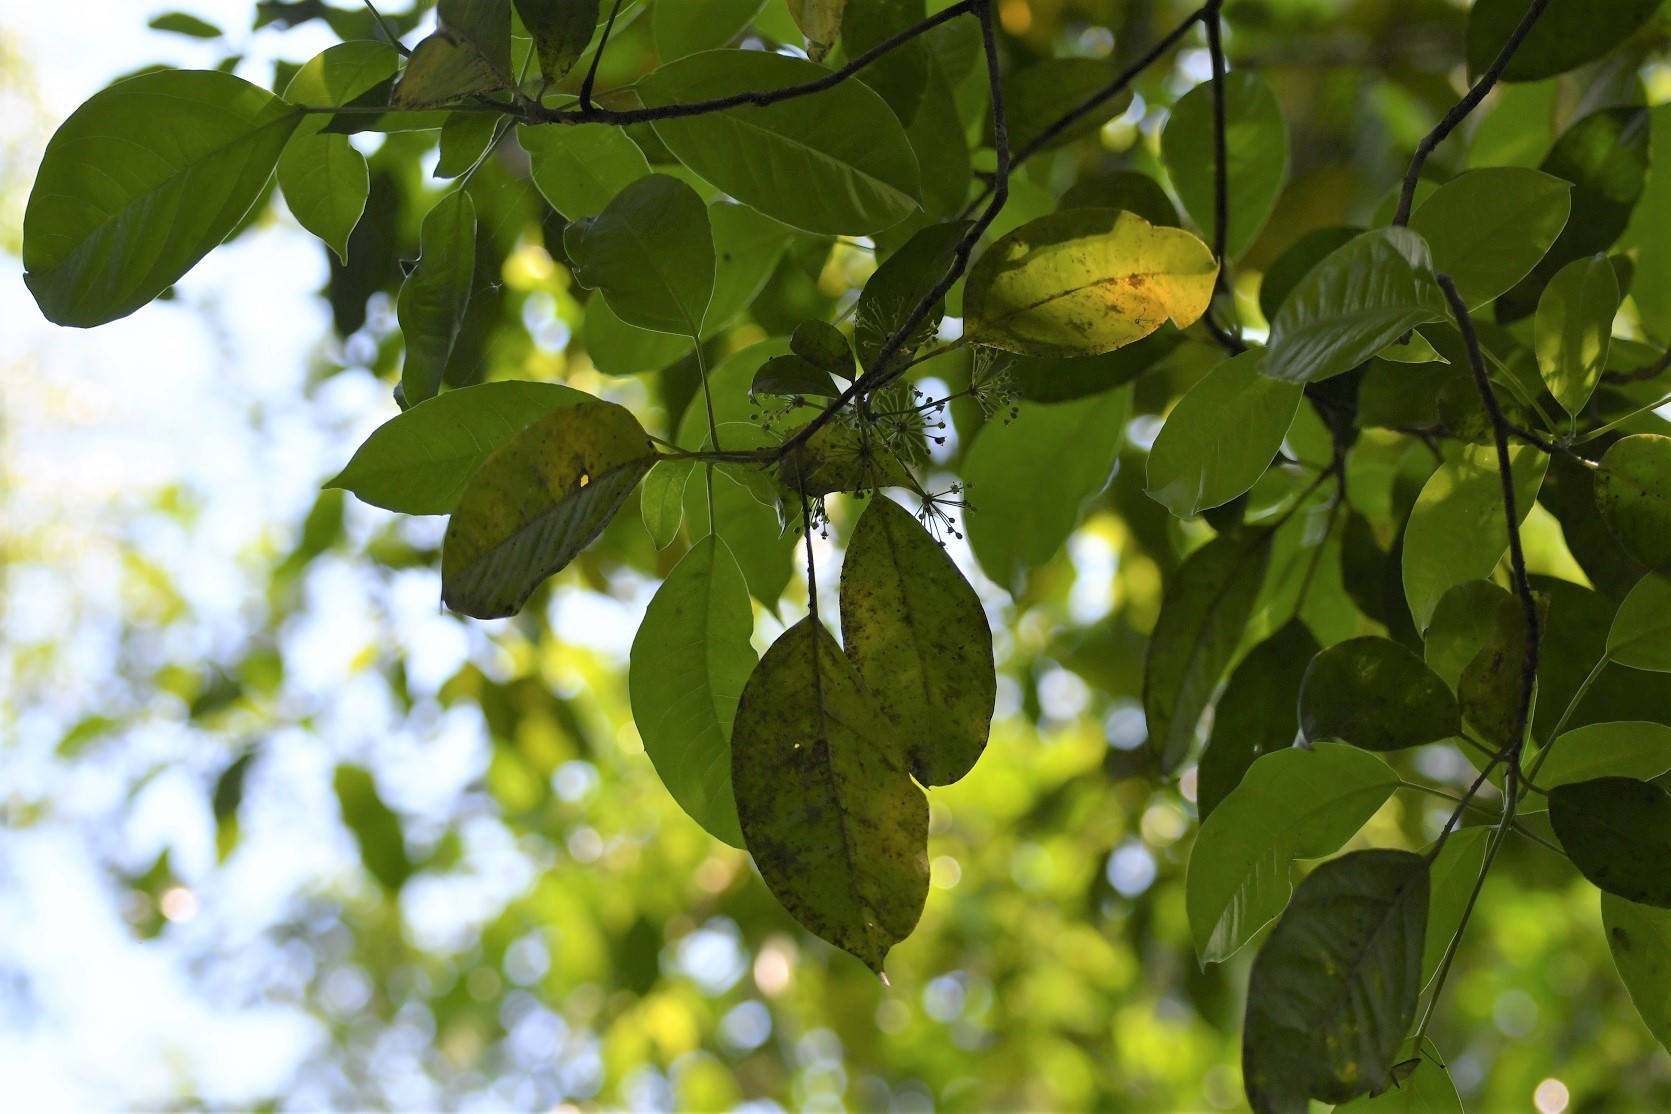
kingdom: Plantae
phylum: Tracheophyta
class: Magnoliopsida
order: Apiales
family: Araliaceae
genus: Dendropanax
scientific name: Dendropanax leptopodus
